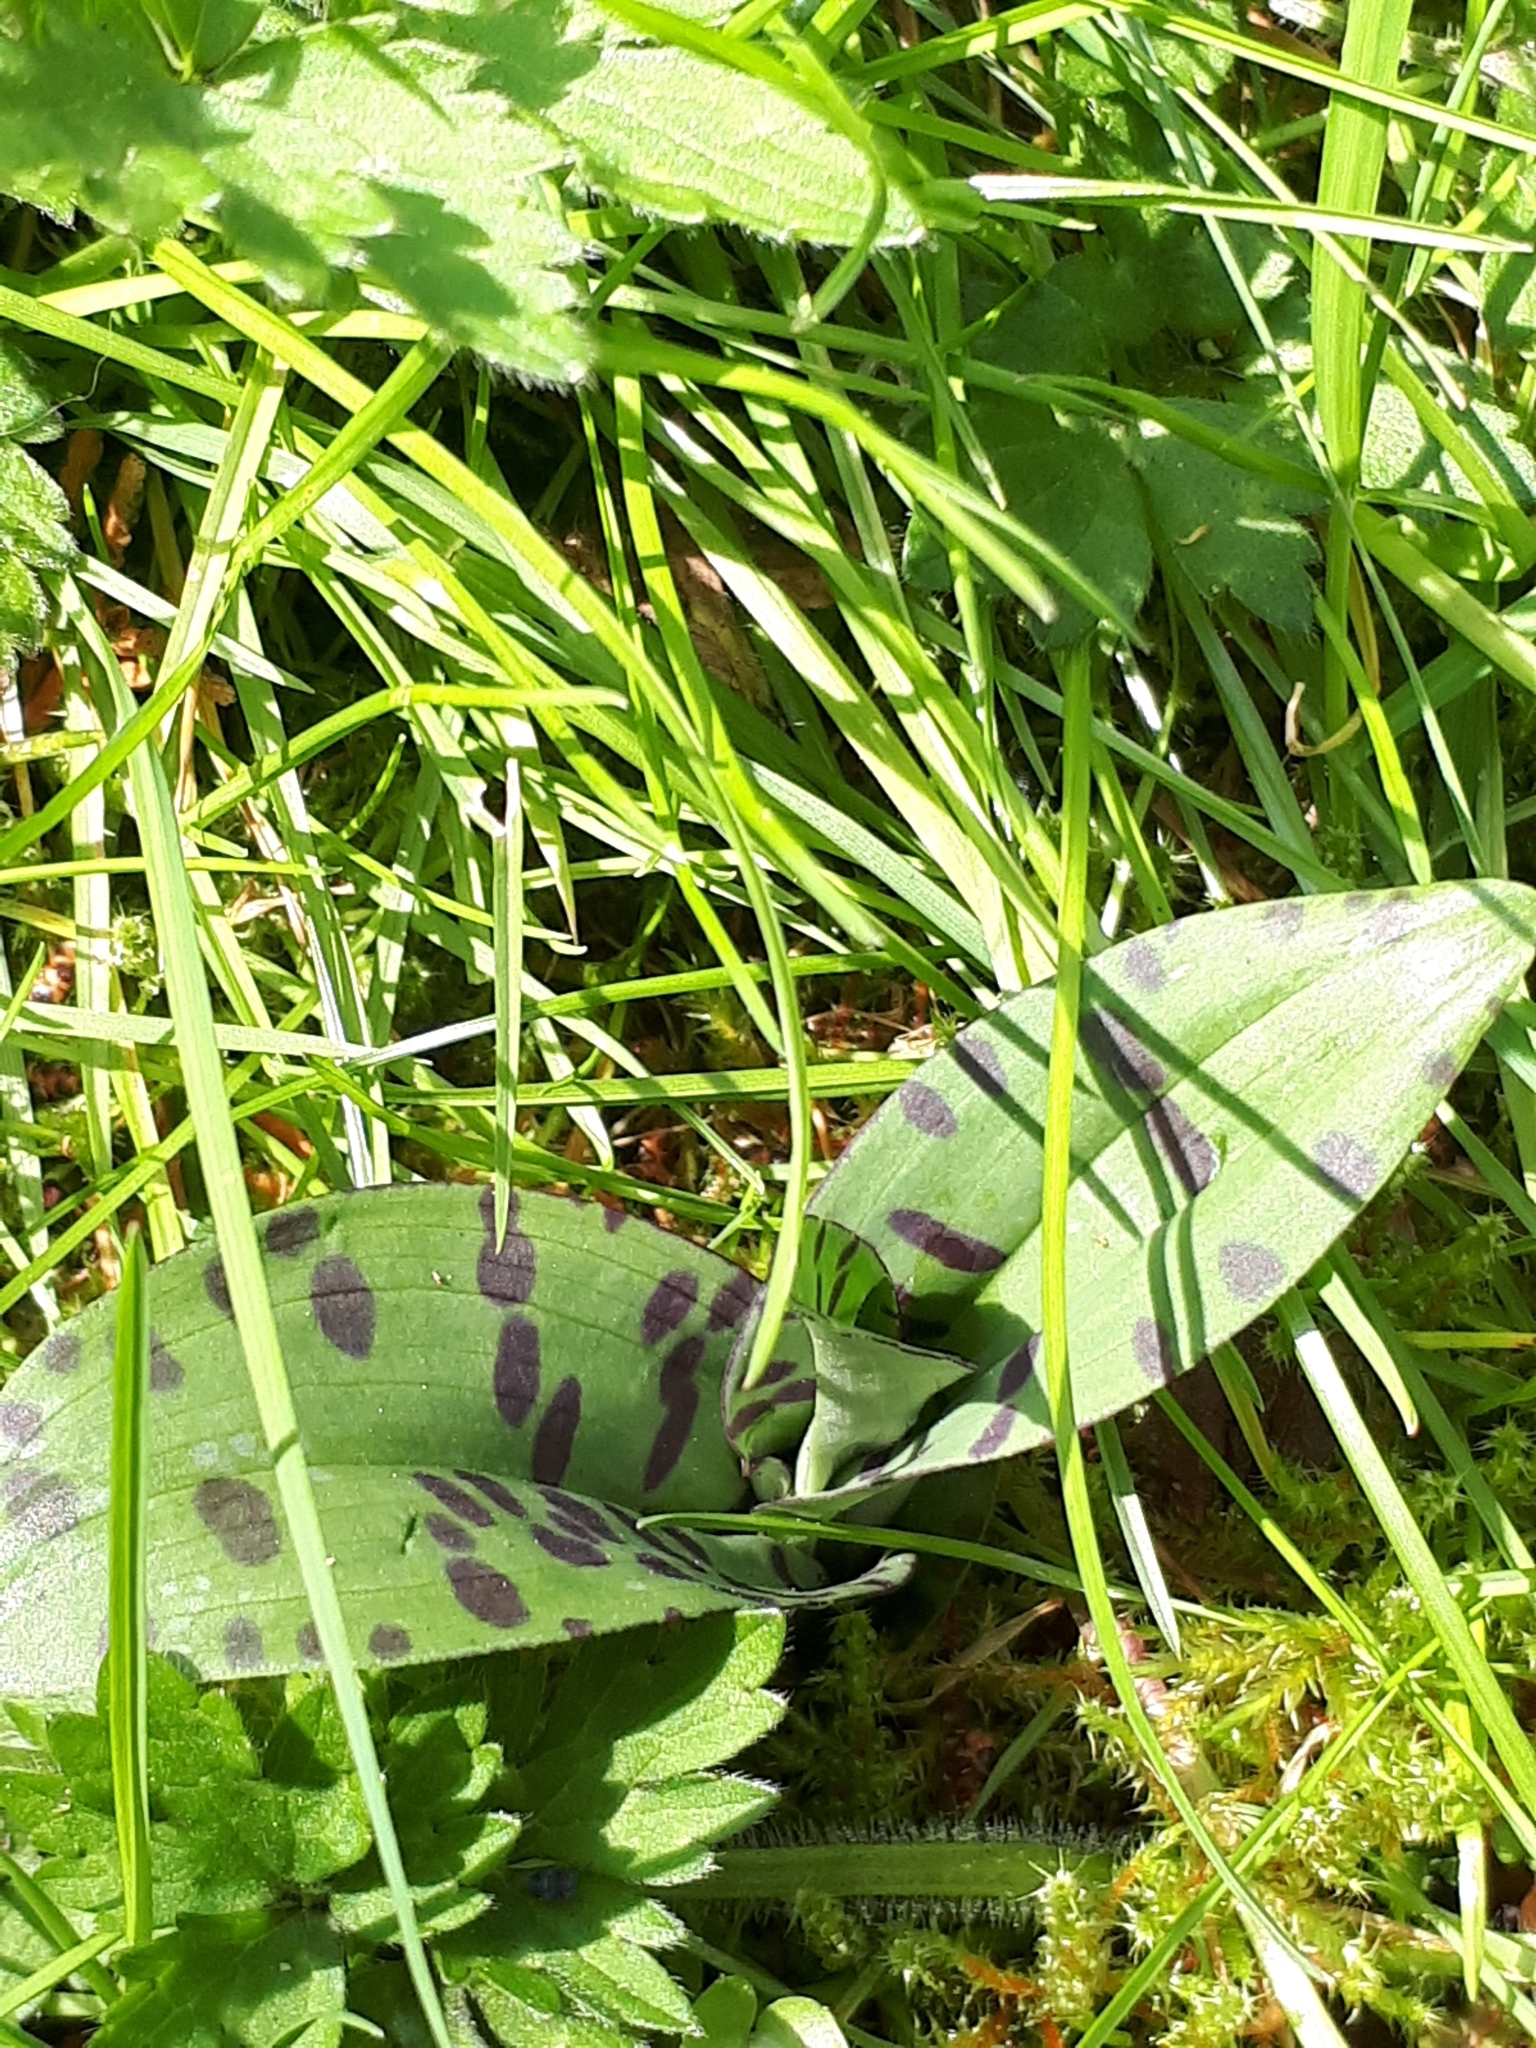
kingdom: Plantae
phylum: Tracheophyta
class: Liliopsida
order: Asparagales
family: Orchidaceae
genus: Dactylorhiza
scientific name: Dactylorhiza maculata
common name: Heath spotted-orchid
